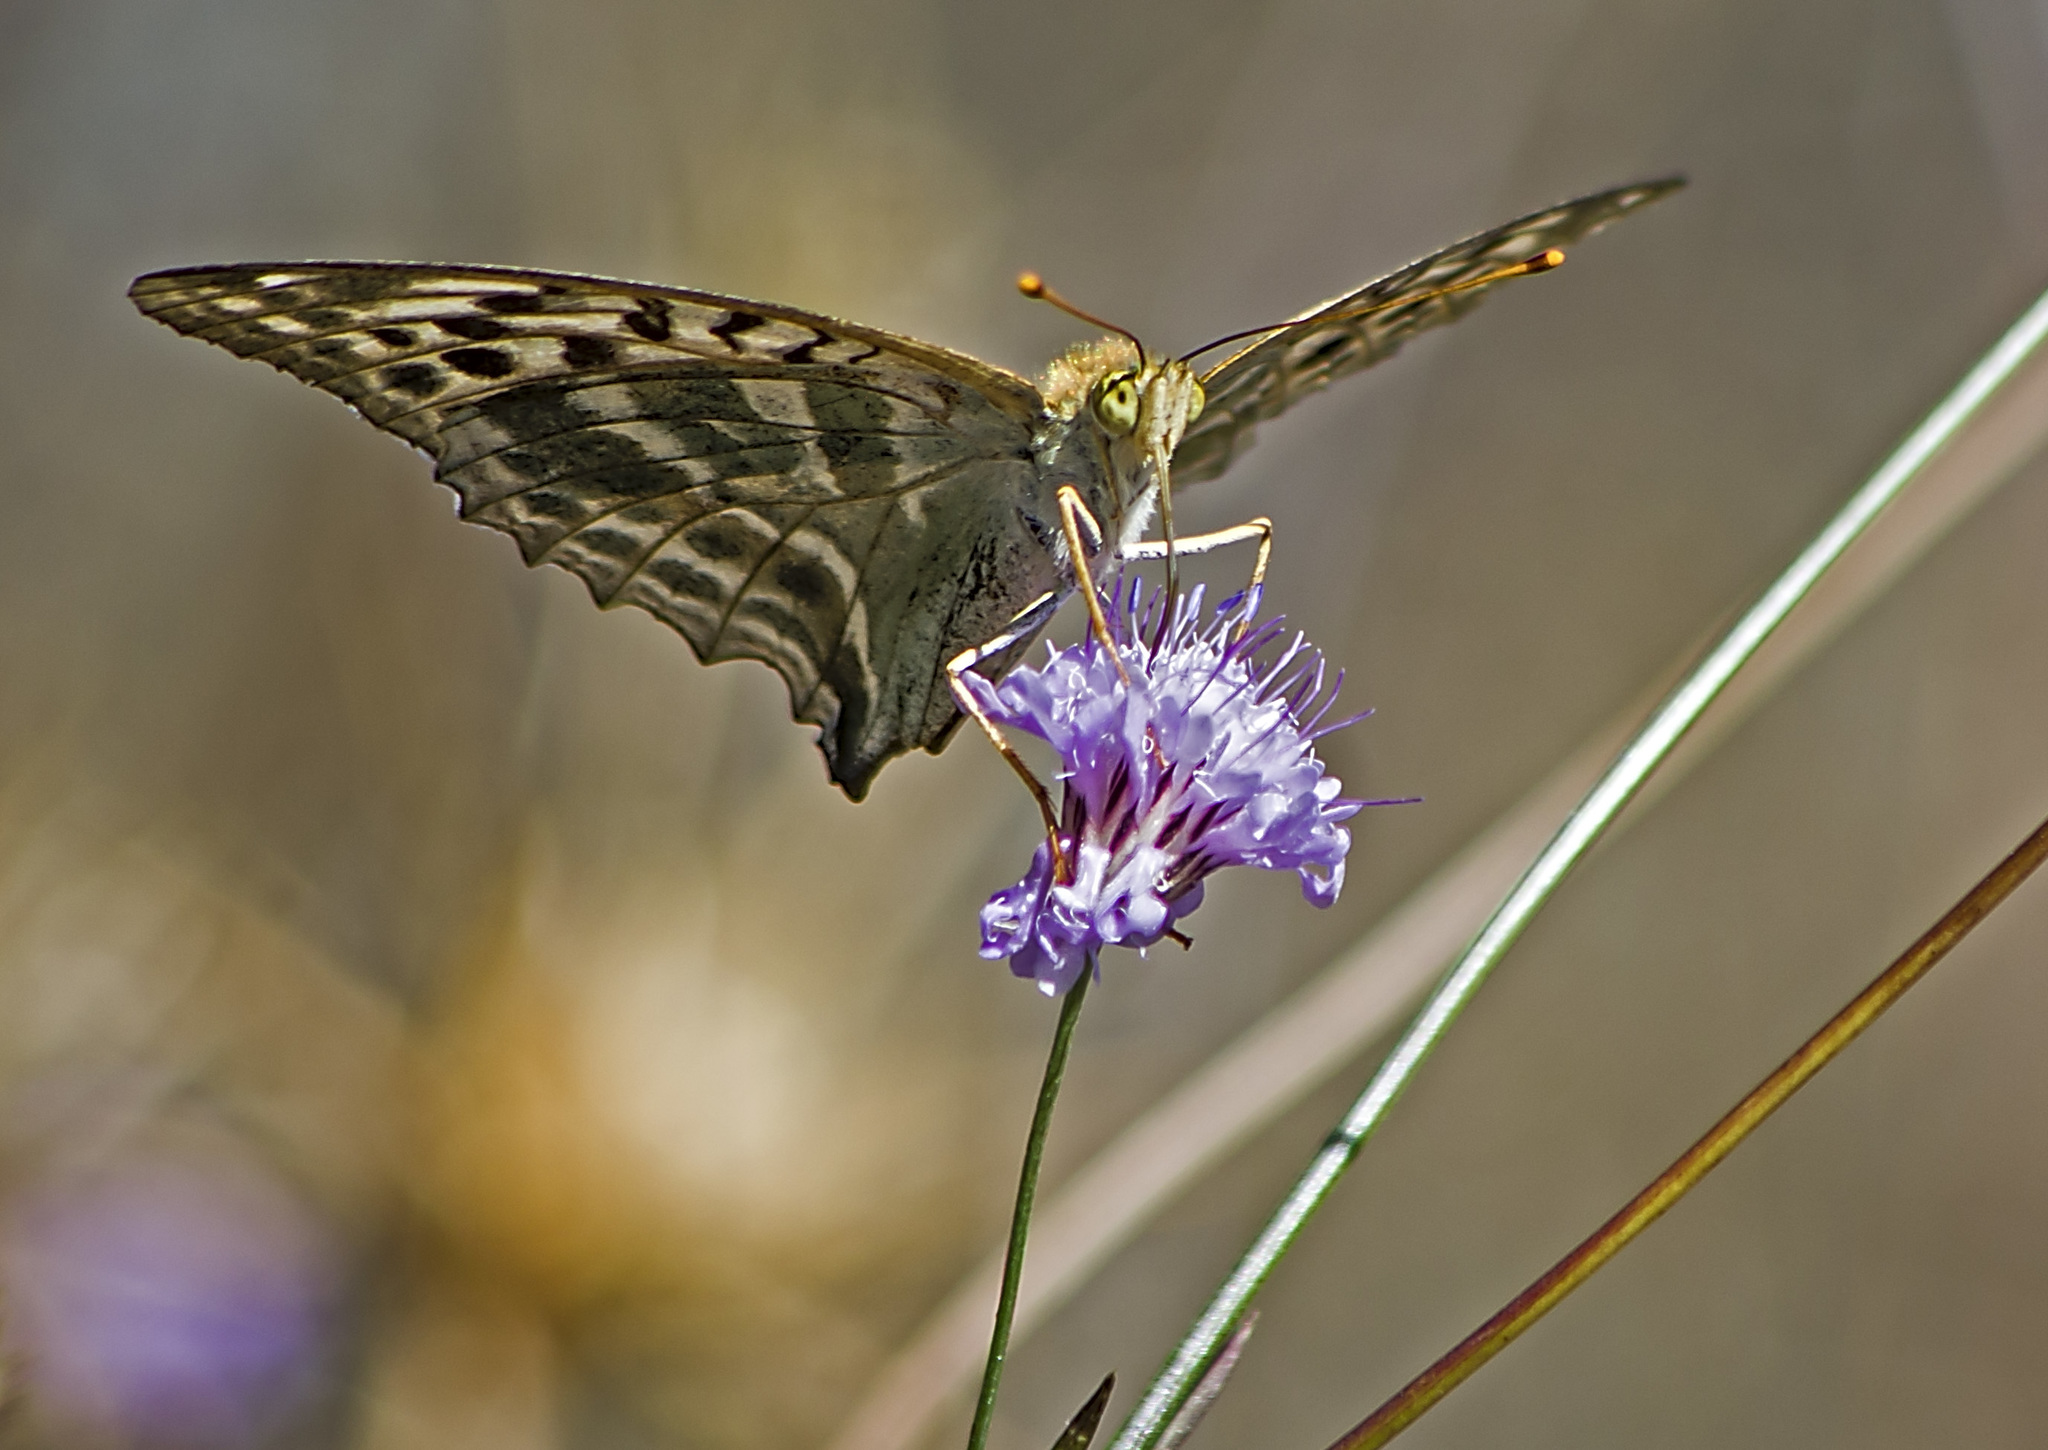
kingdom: Animalia
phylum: Arthropoda
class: Insecta
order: Lepidoptera
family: Nymphalidae
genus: Argynnis
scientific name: Argynnis paphia
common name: Silver-washed fritillary
